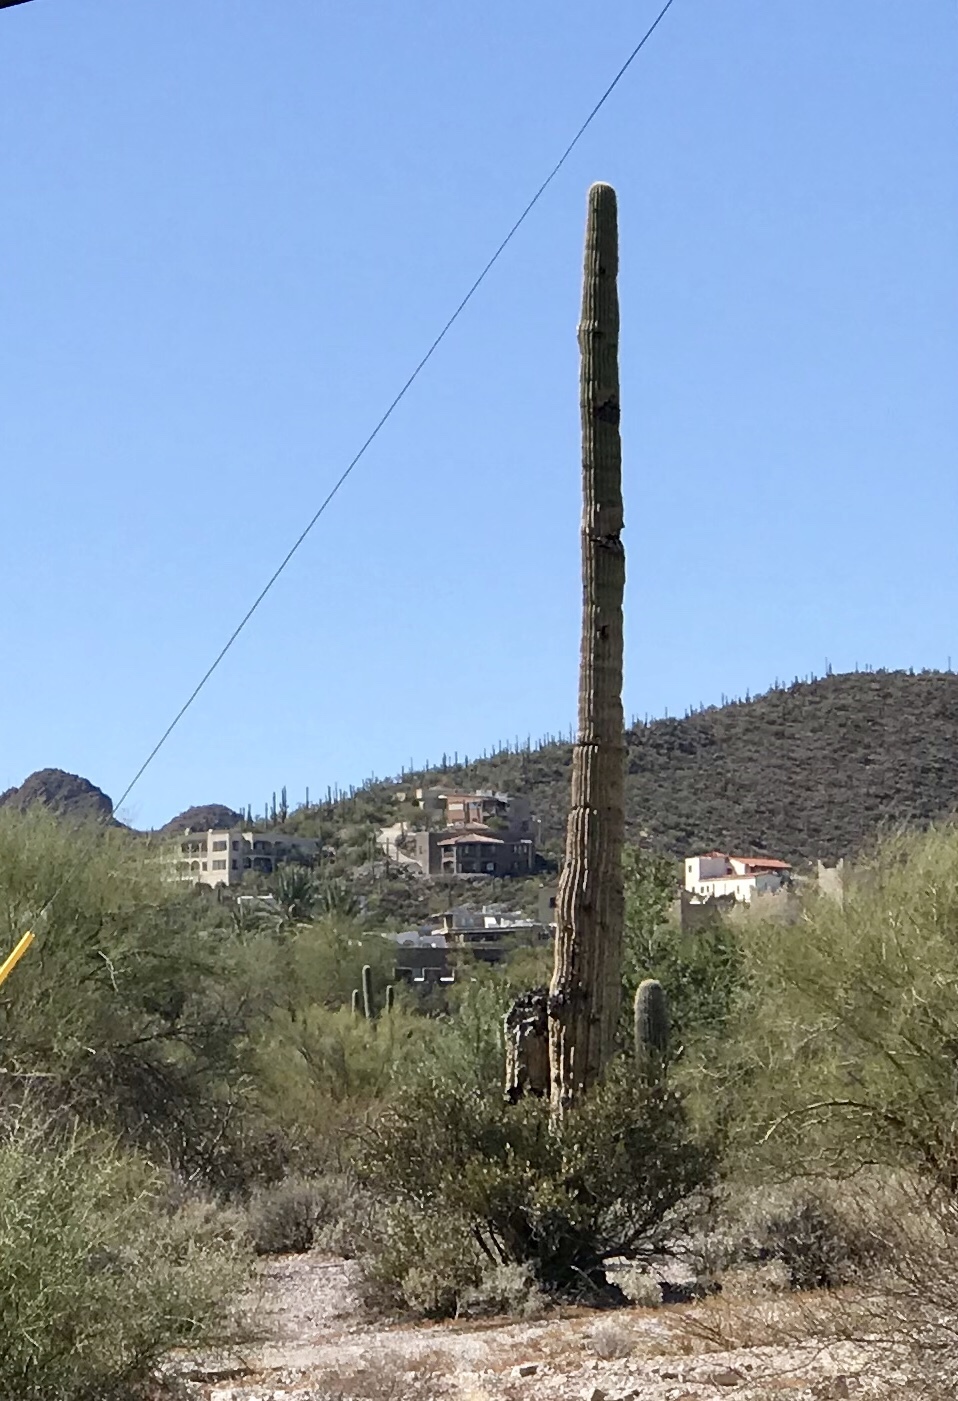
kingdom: Plantae
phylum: Tracheophyta
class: Magnoliopsida
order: Caryophyllales
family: Cactaceae
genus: Carnegiea
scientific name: Carnegiea gigantea
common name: Saguaro
